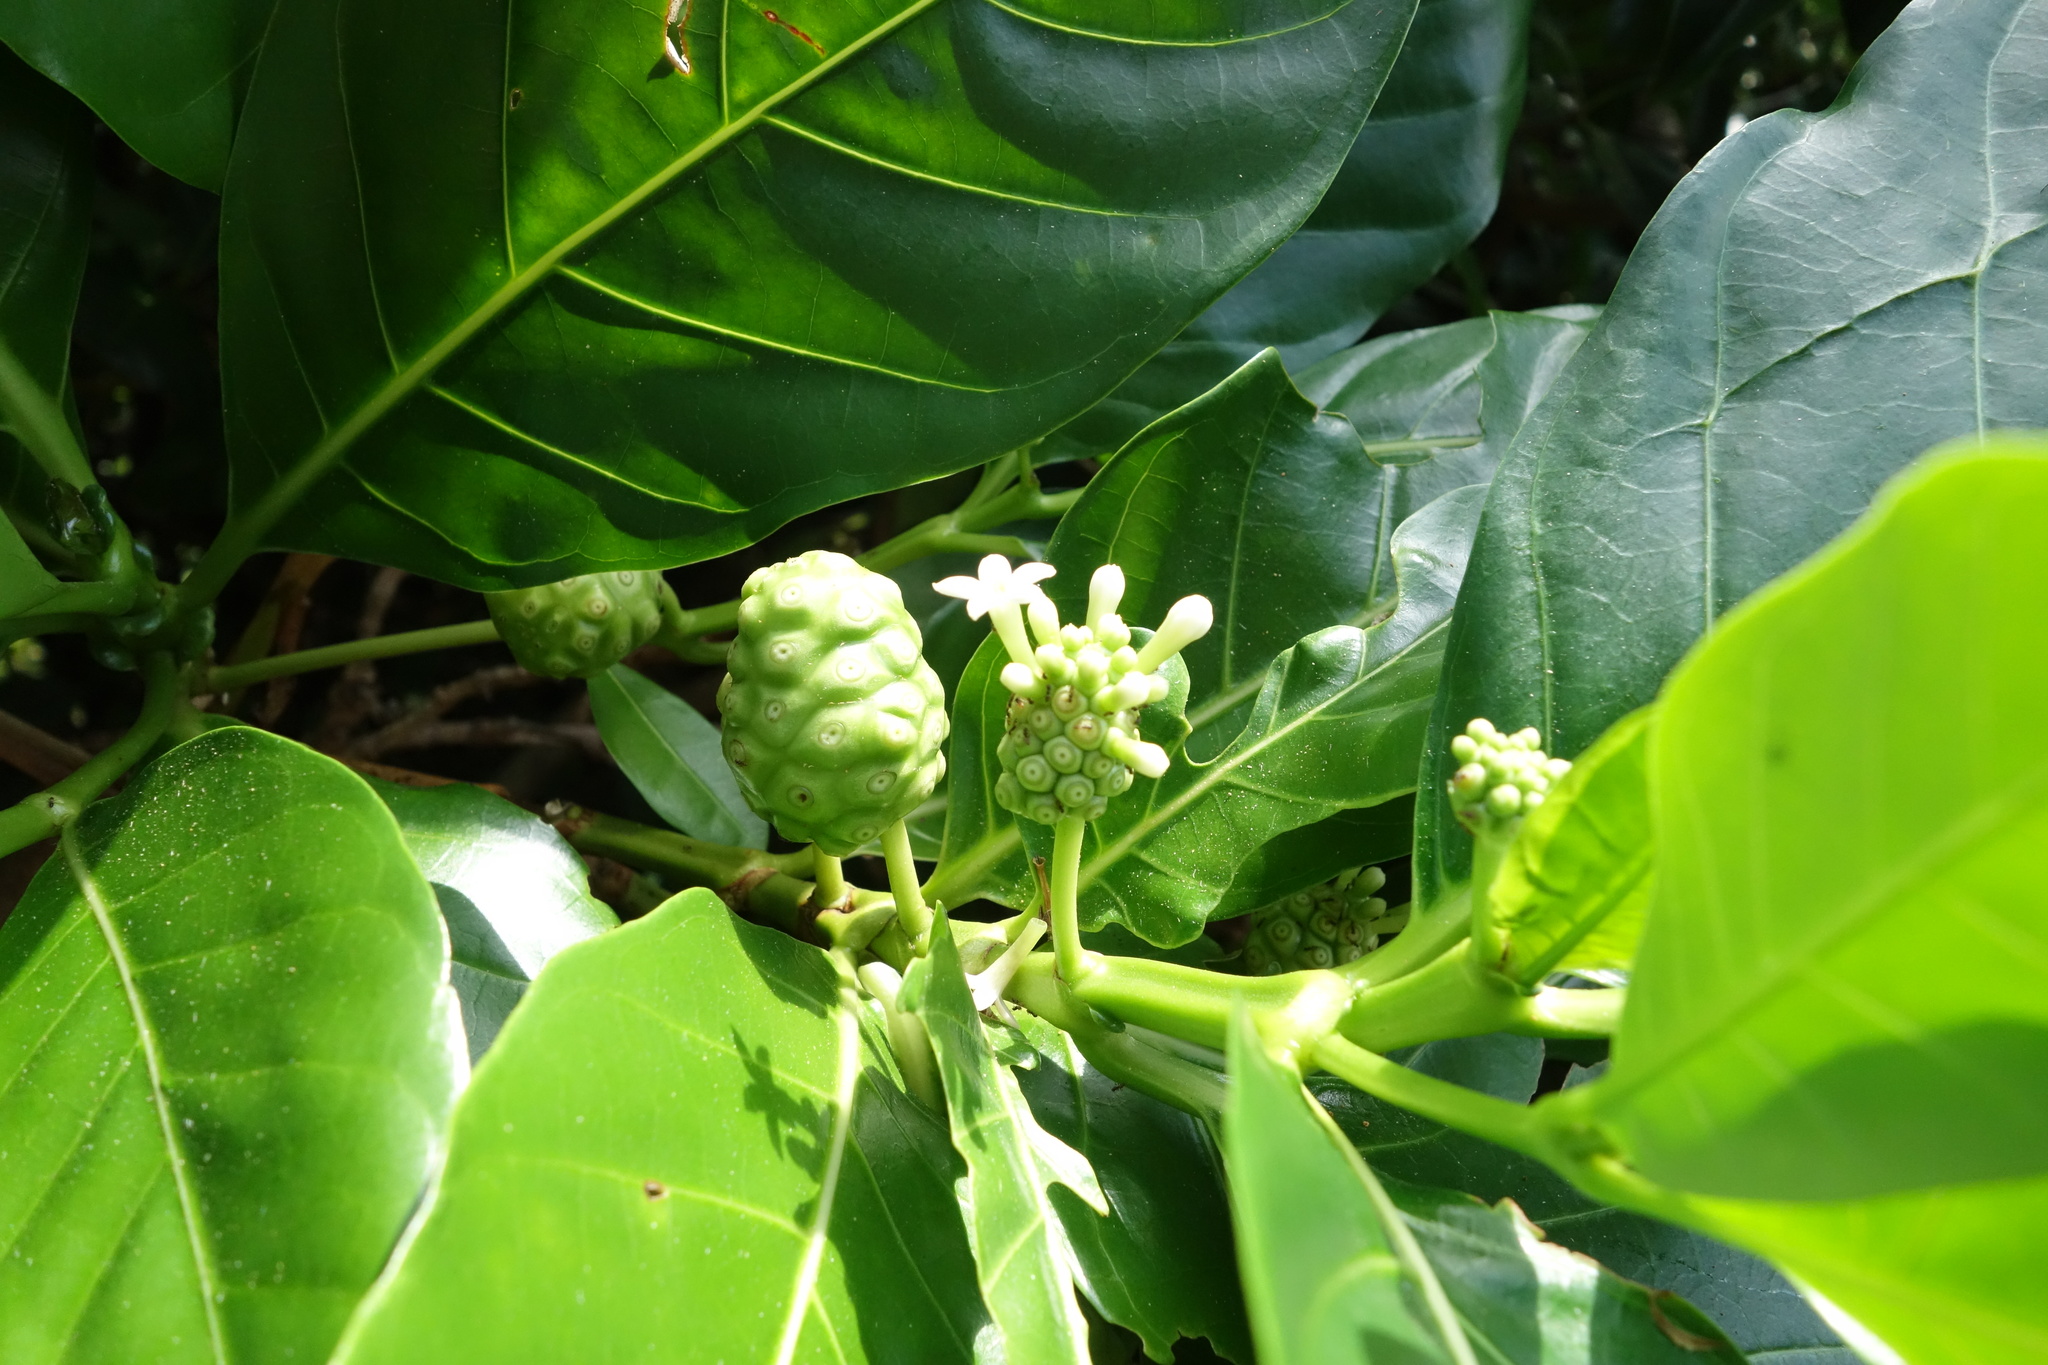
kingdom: Plantae
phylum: Tracheophyta
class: Magnoliopsida
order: Gentianales
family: Rubiaceae
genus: Morinda
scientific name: Morinda citrifolia
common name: Indian-mulberry
